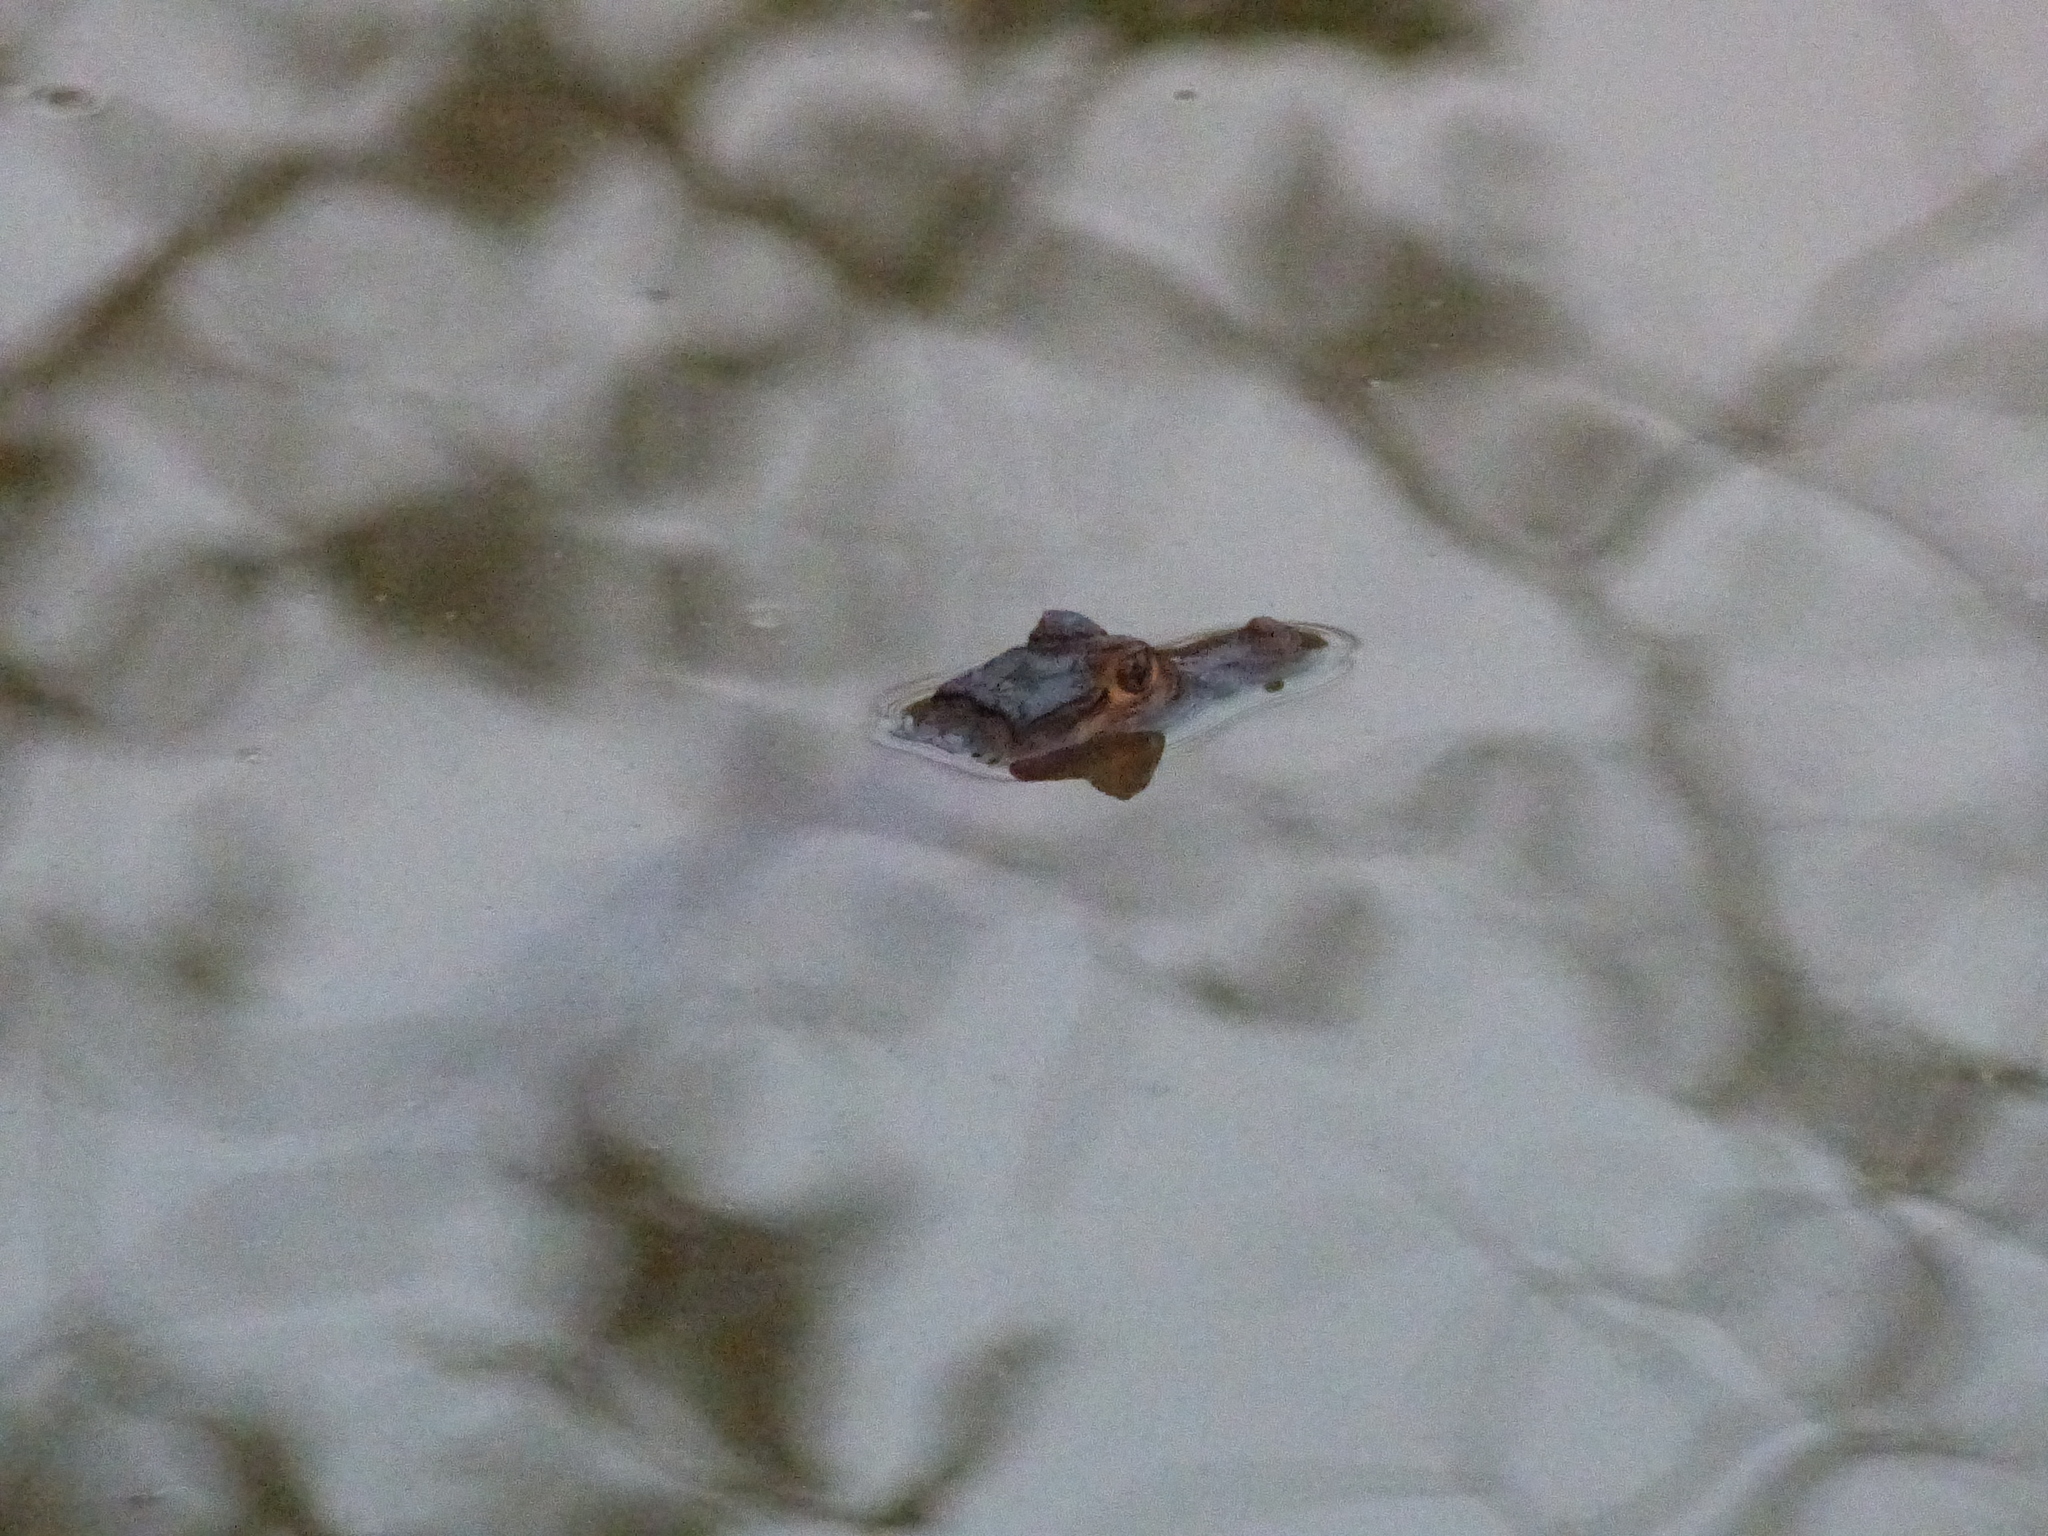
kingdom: Animalia
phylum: Chordata
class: Crocodylia
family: Alligatoridae
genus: Caiman
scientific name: Caiman crocodilus
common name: Common caiman
